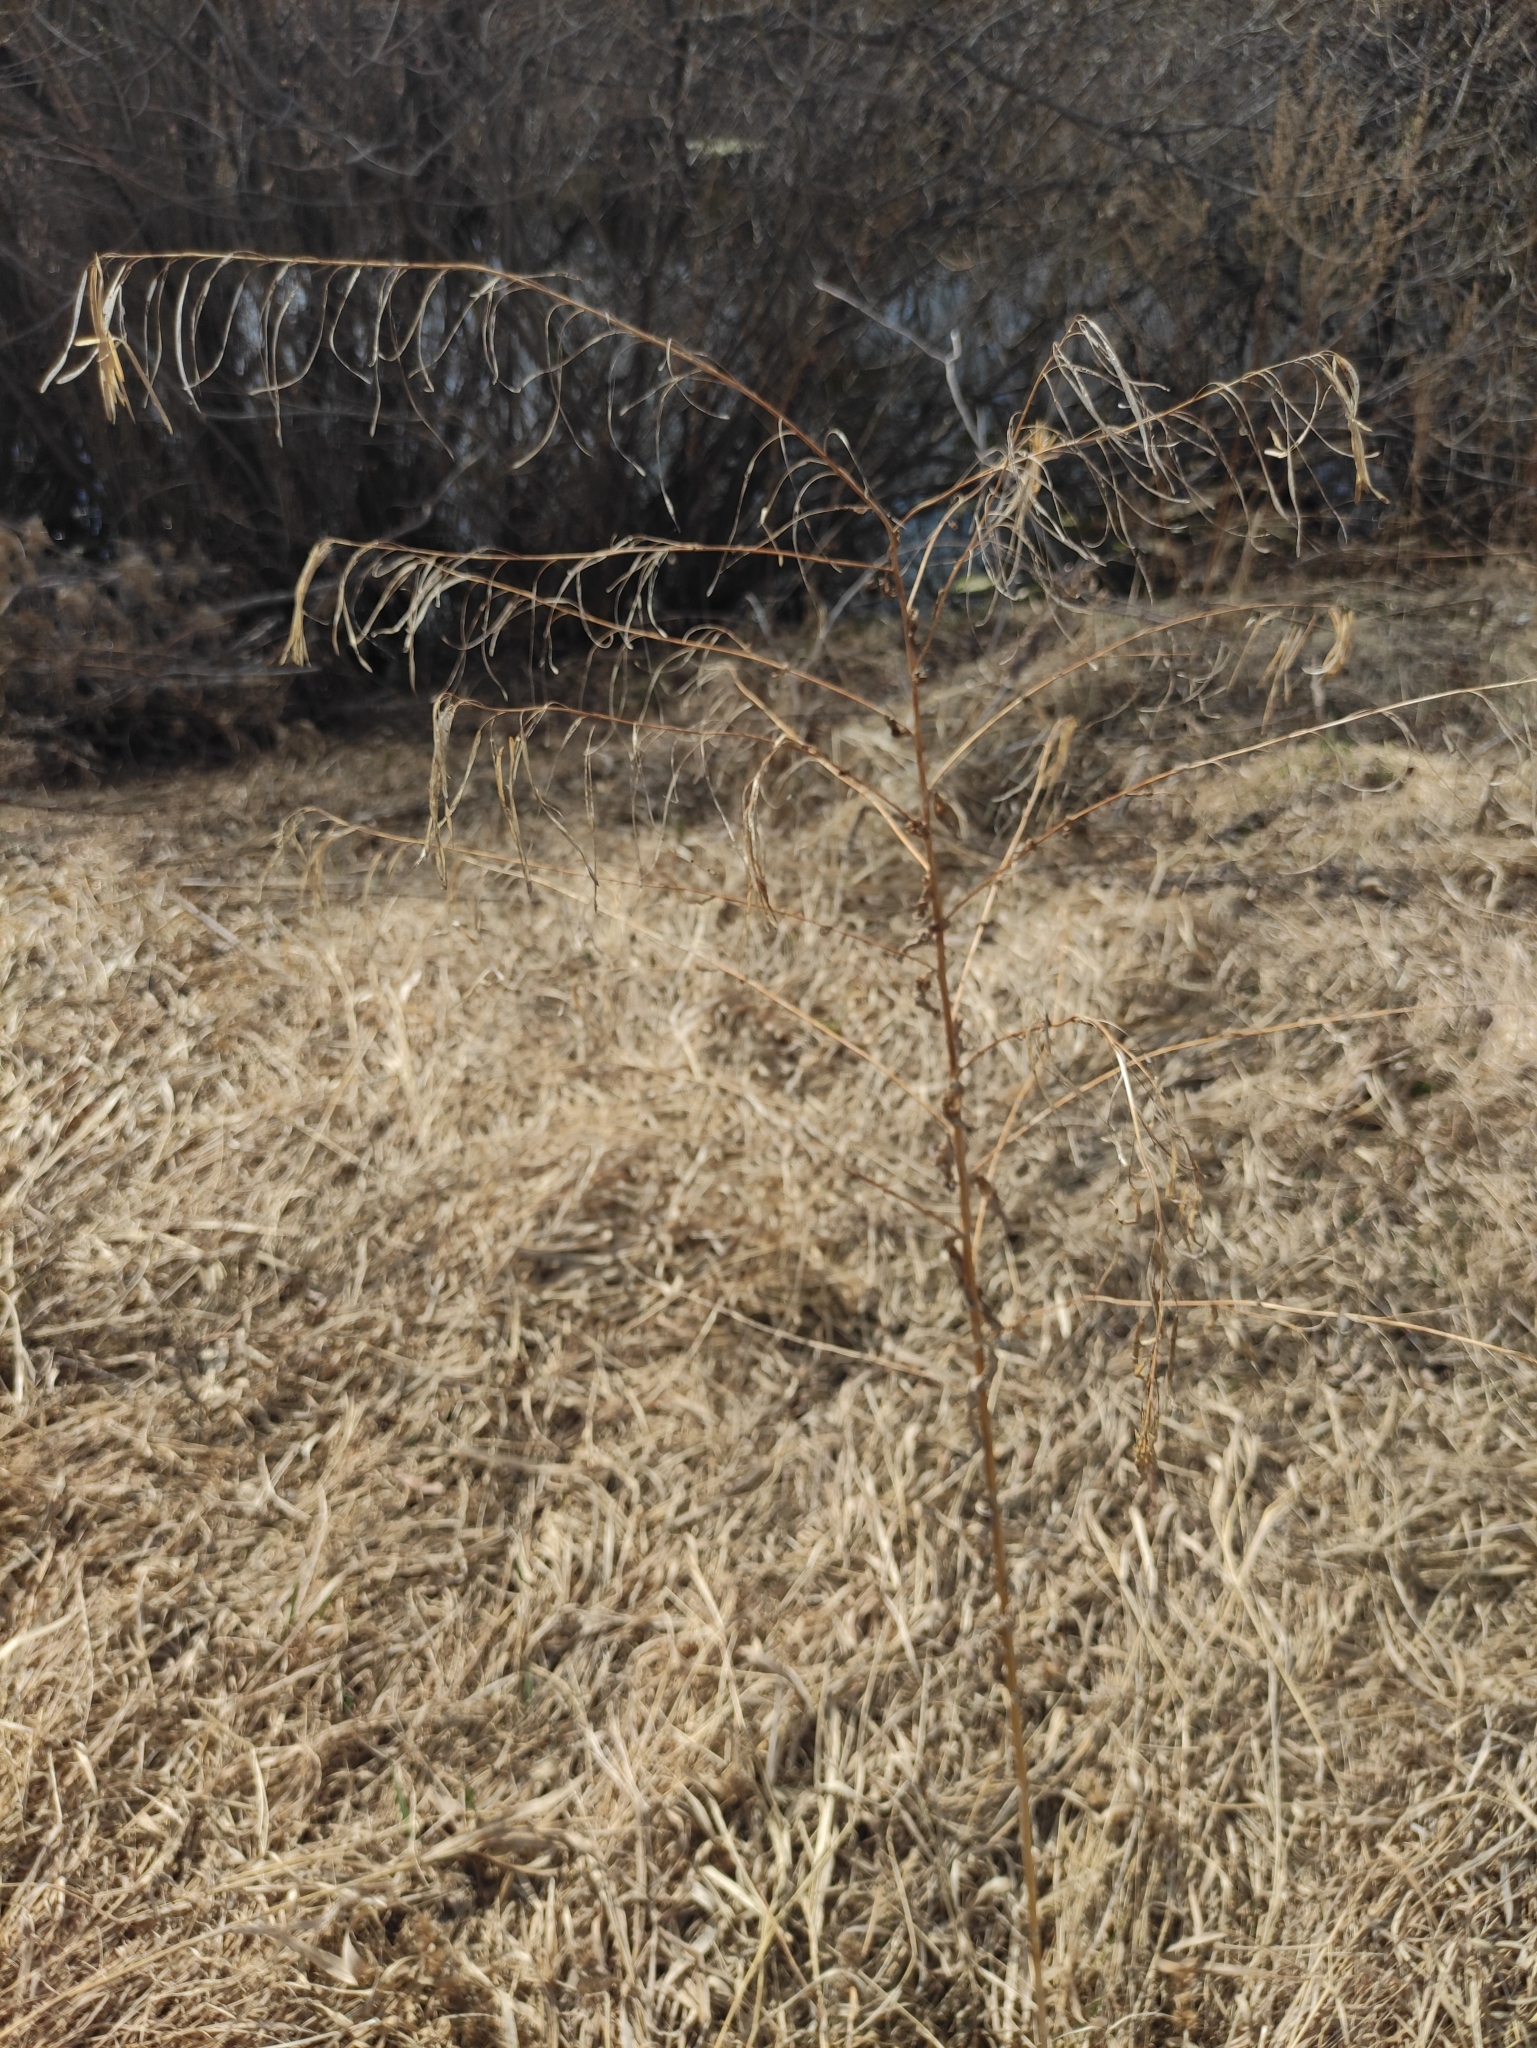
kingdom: Plantae
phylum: Tracheophyta
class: Magnoliopsida
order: Brassicales
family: Brassicaceae
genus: Catolobus
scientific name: Catolobus pendulus
